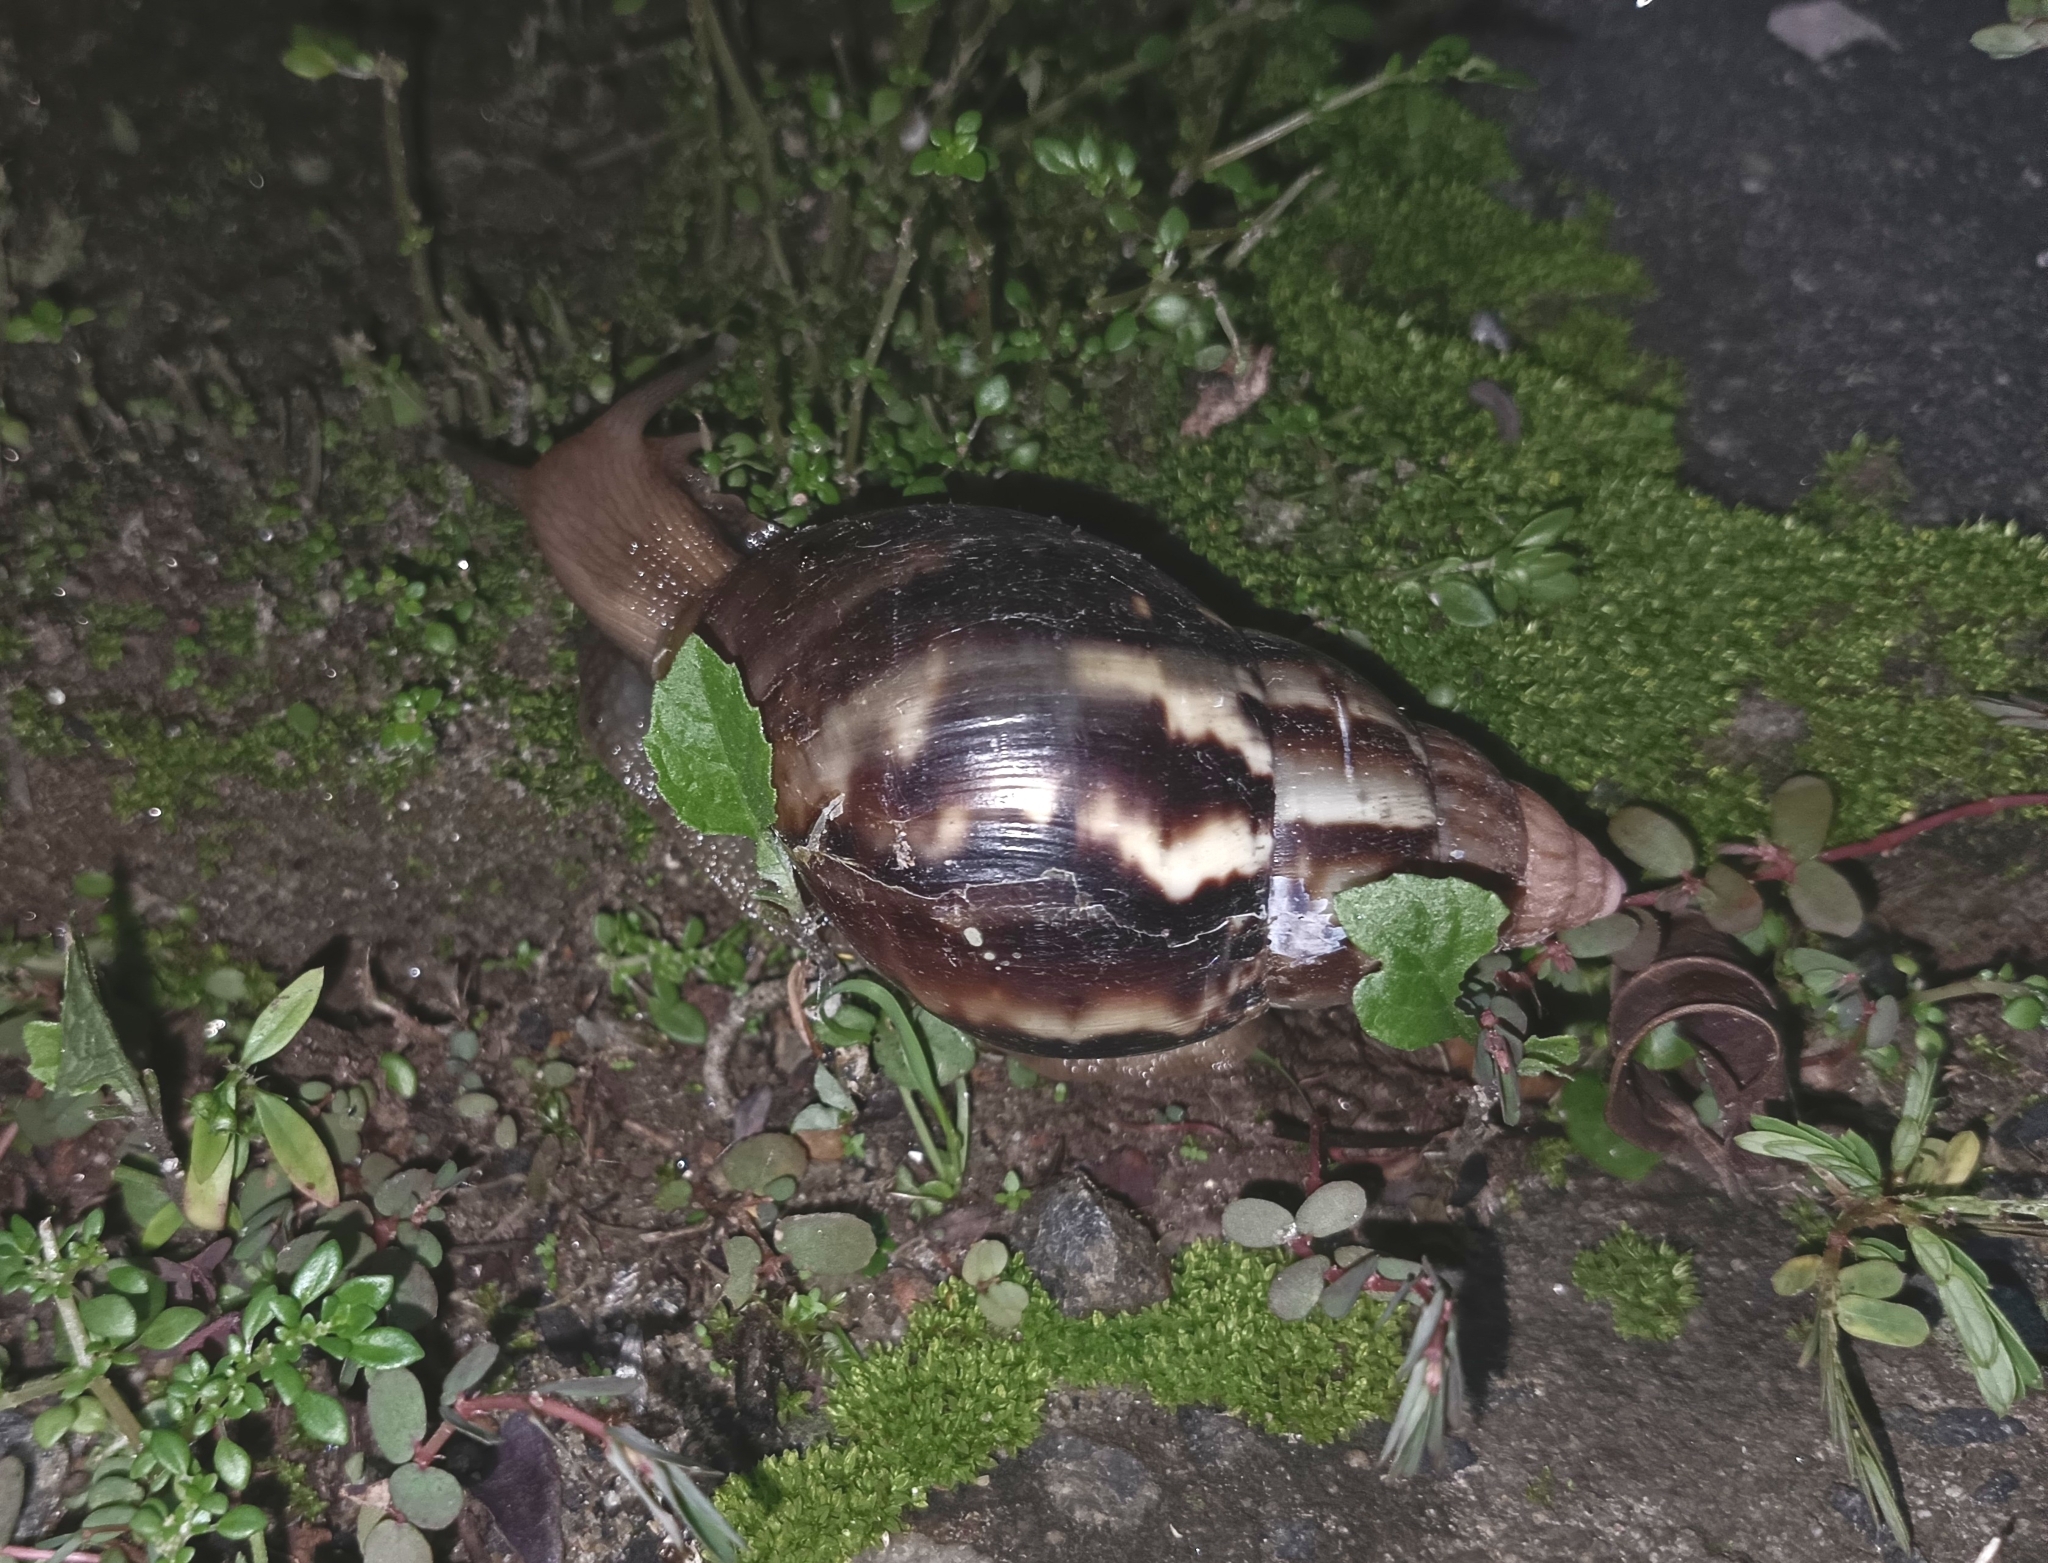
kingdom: Animalia
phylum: Mollusca
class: Gastropoda
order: Stylommatophora
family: Achatinidae
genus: Lissachatina
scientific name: Lissachatina fulica
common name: Giant african snail
